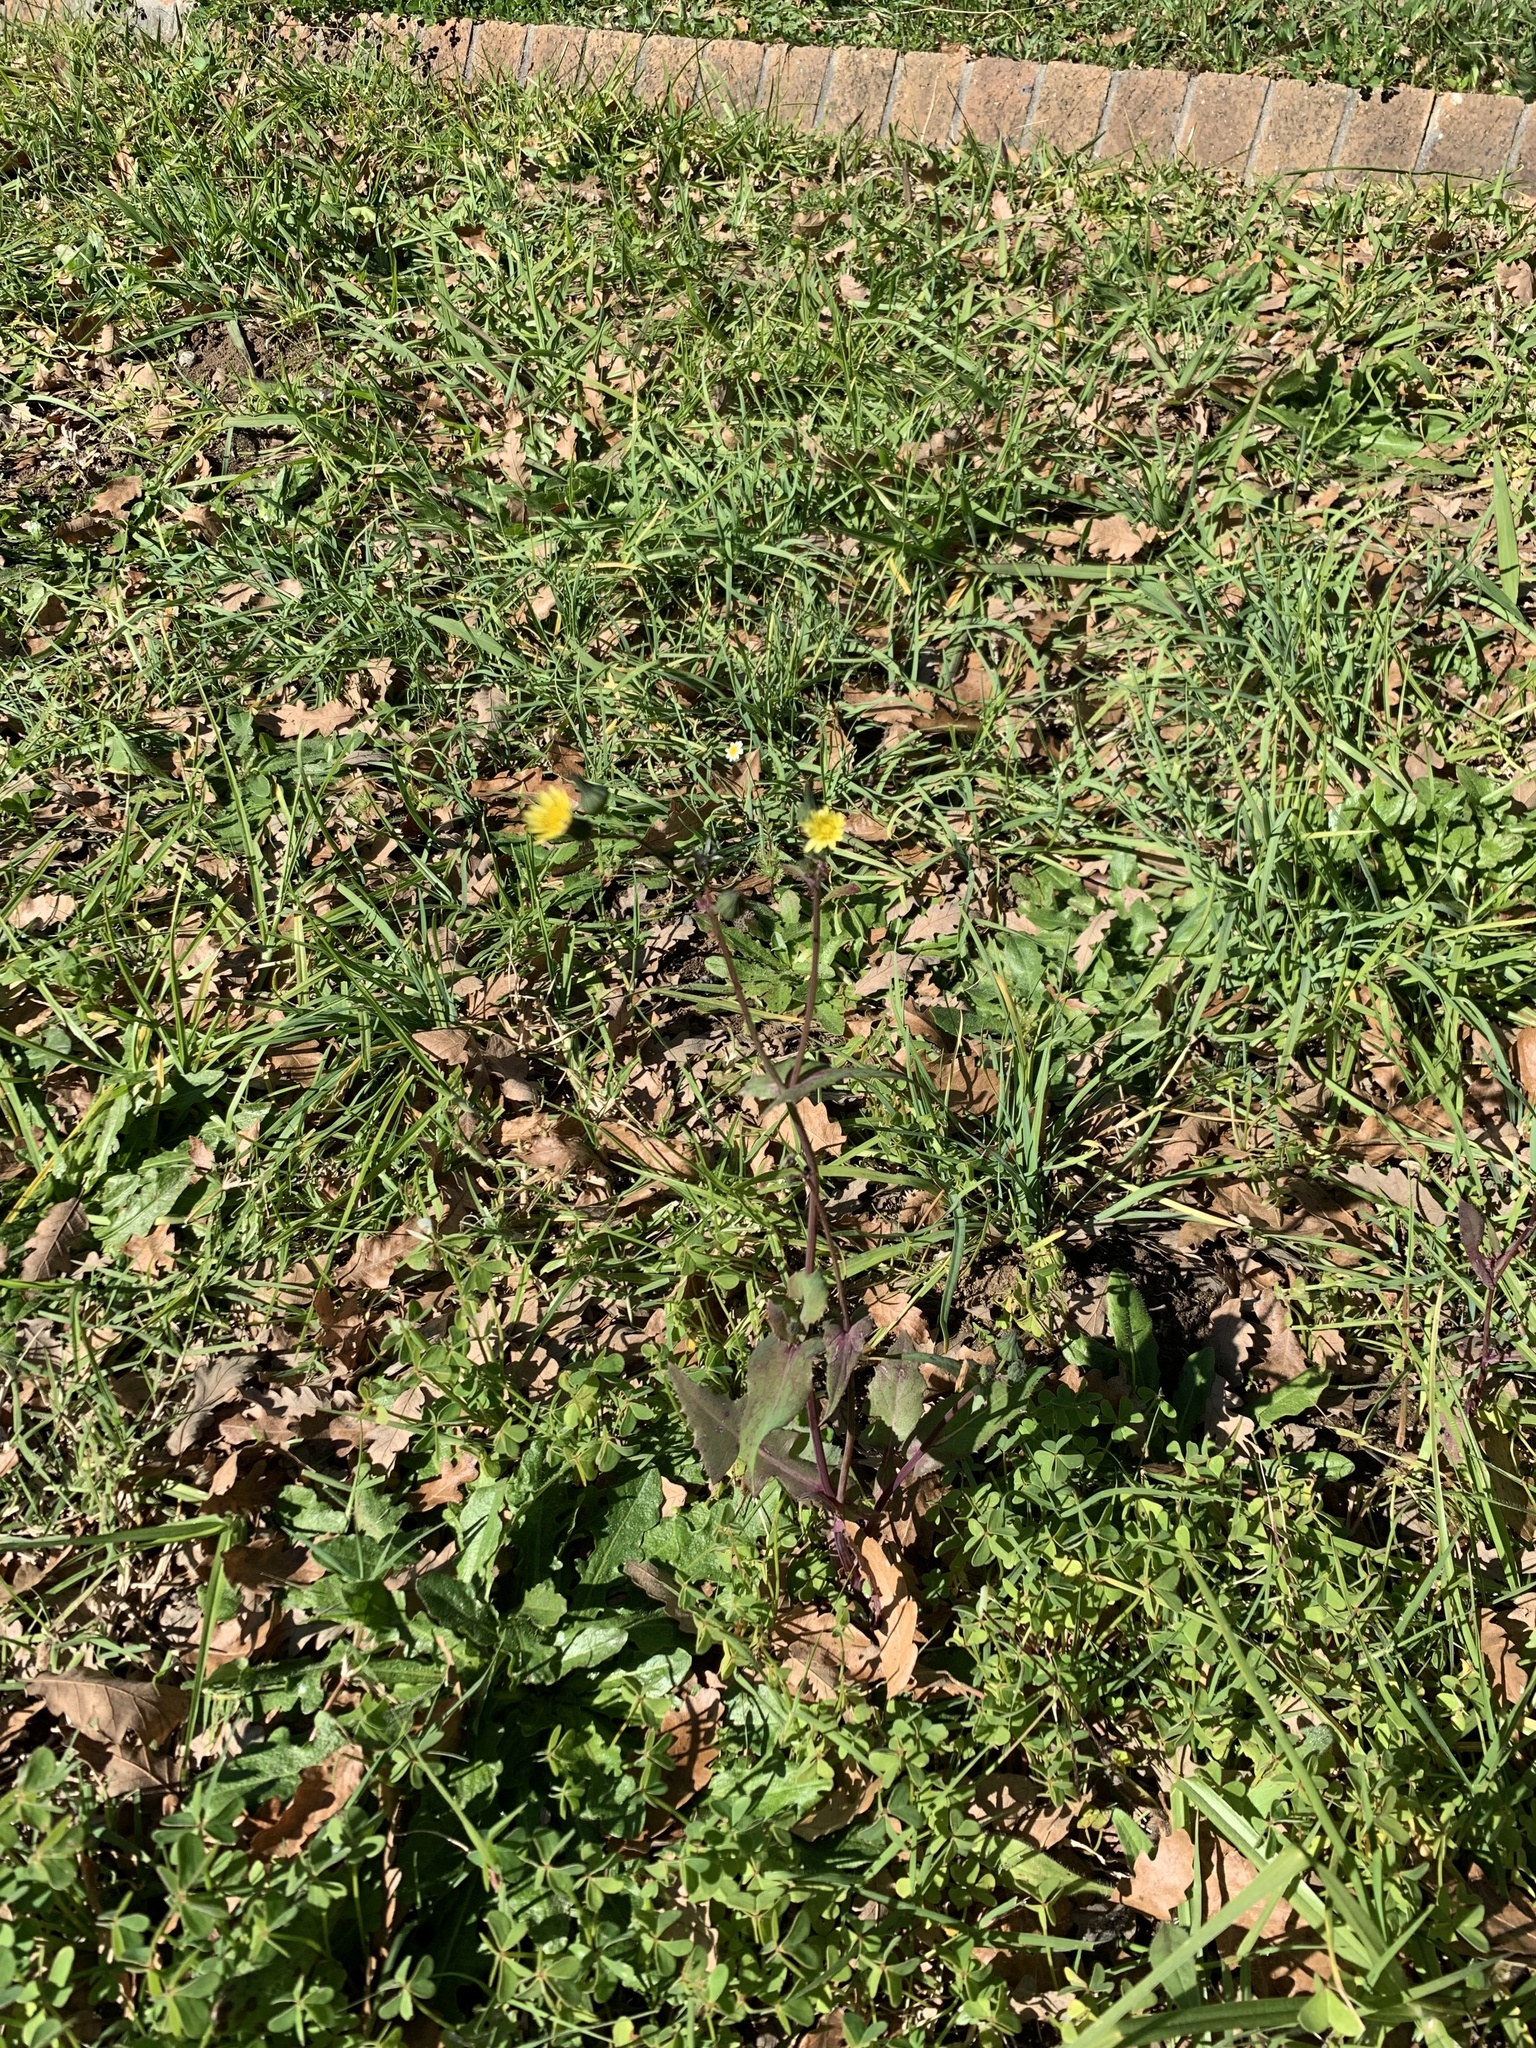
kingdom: Plantae
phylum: Tracheophyta
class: Magnoliopsida
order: Asterales
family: Asteraceae
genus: Sonchus
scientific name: Sonchus oleraceus
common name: Common sowthistle
